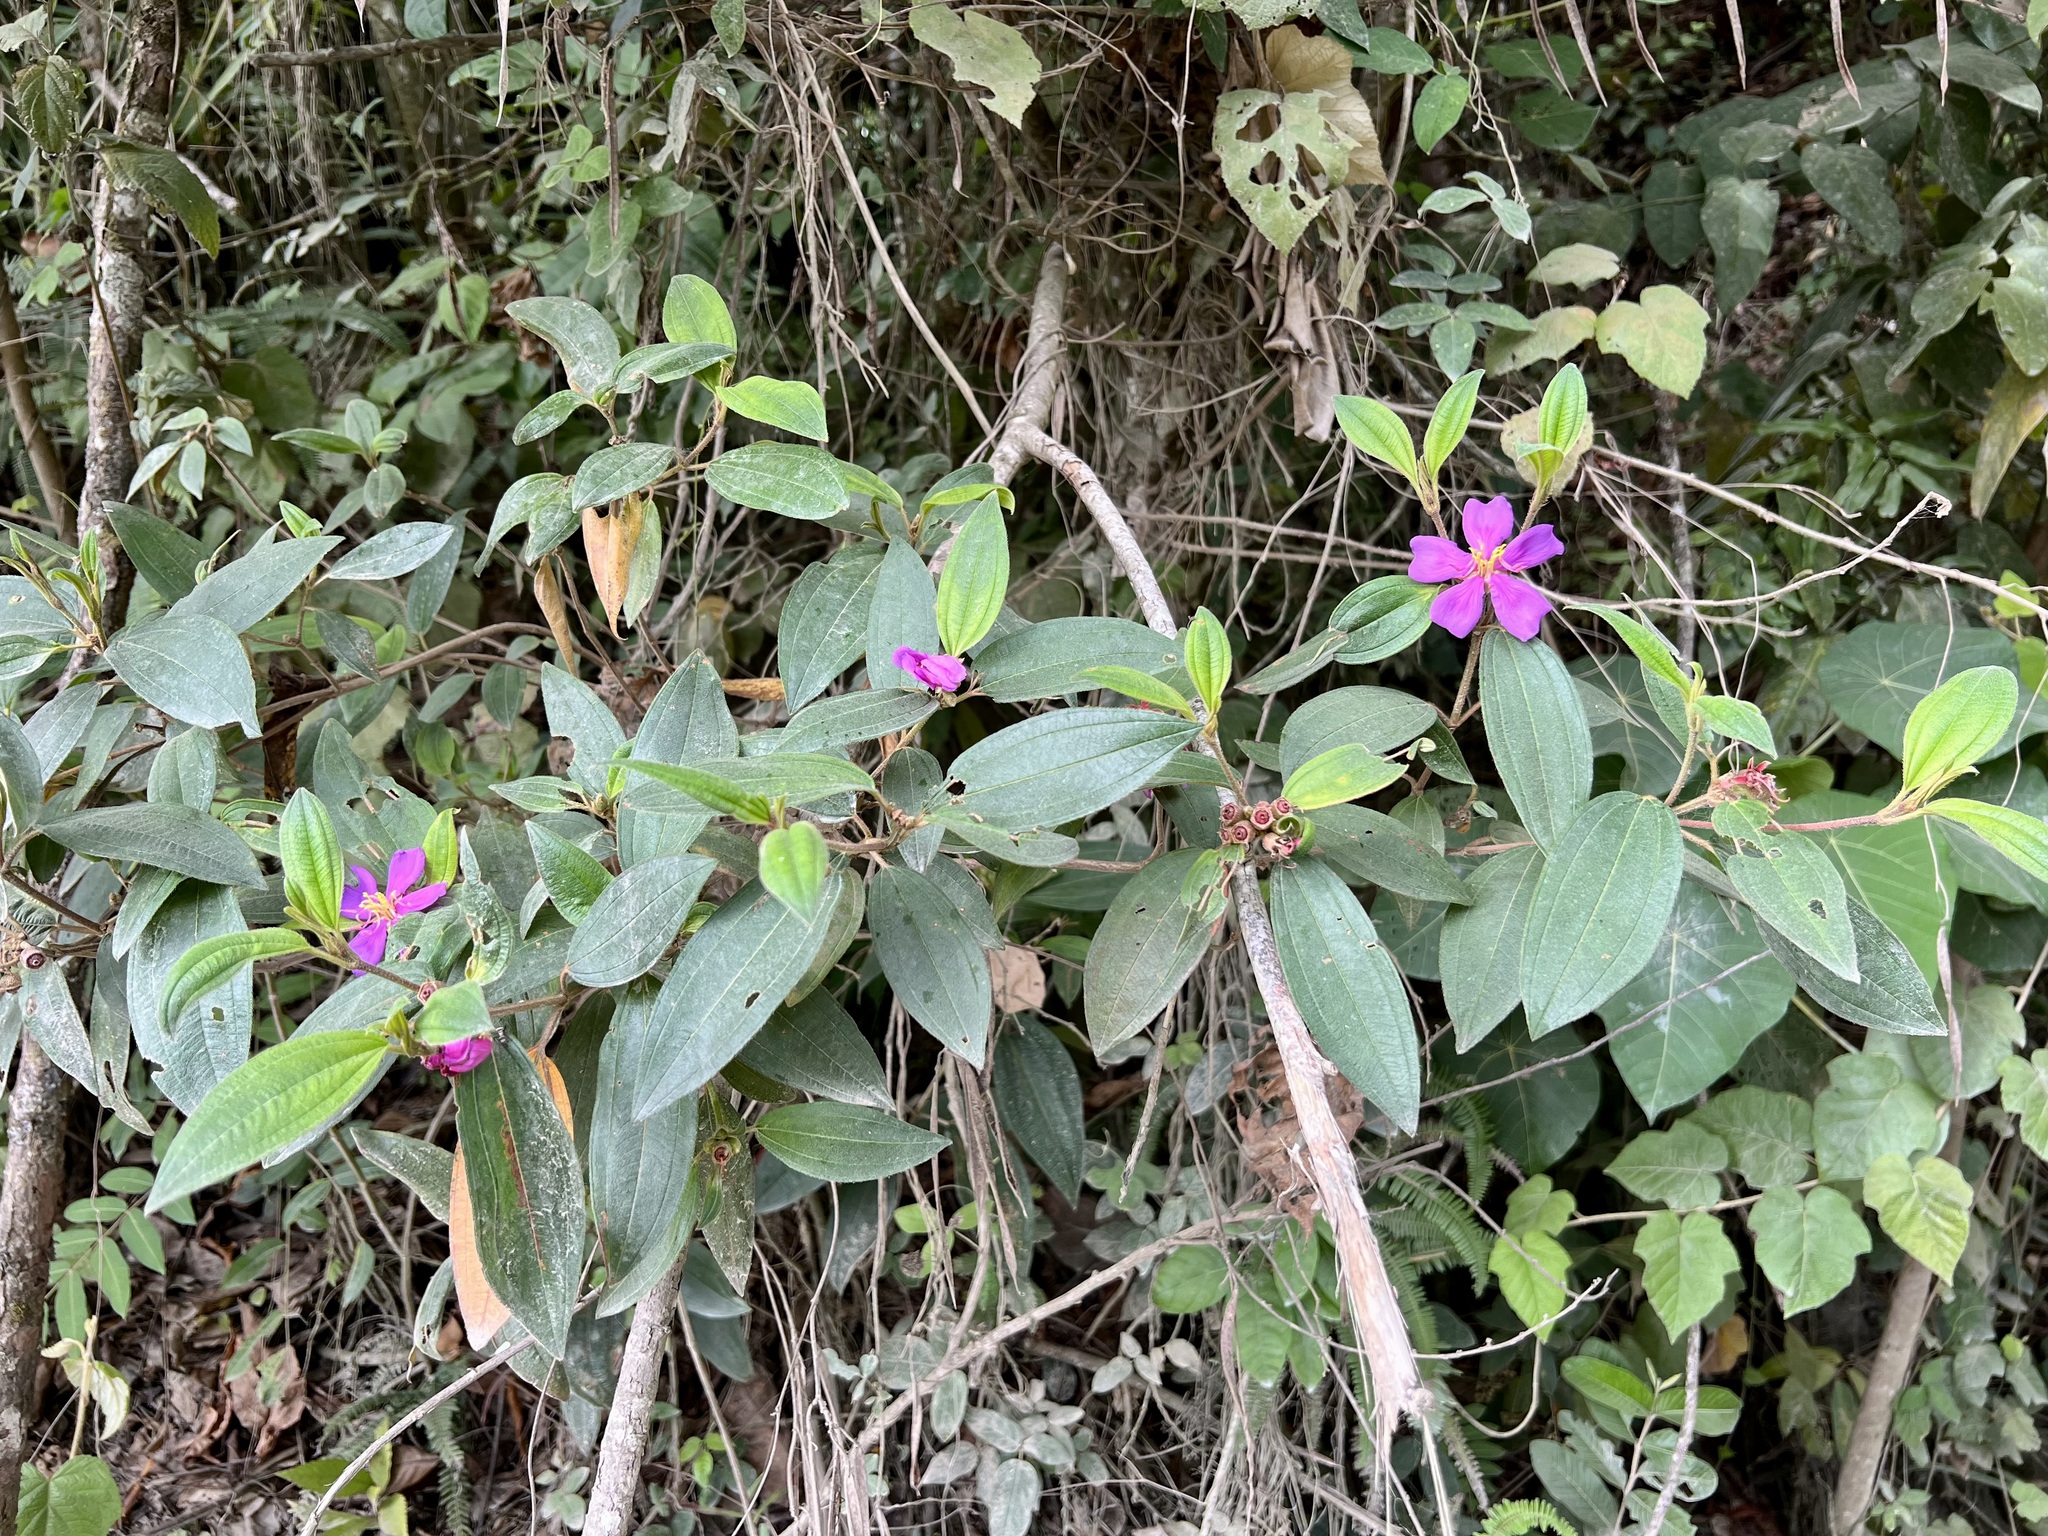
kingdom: Plantae
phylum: Tracheophyta
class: Magnoliopsida
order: Myrtales
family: Melastomataceae
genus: Melastoma
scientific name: Melastoma malabathricum
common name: Indian-rhododendron
